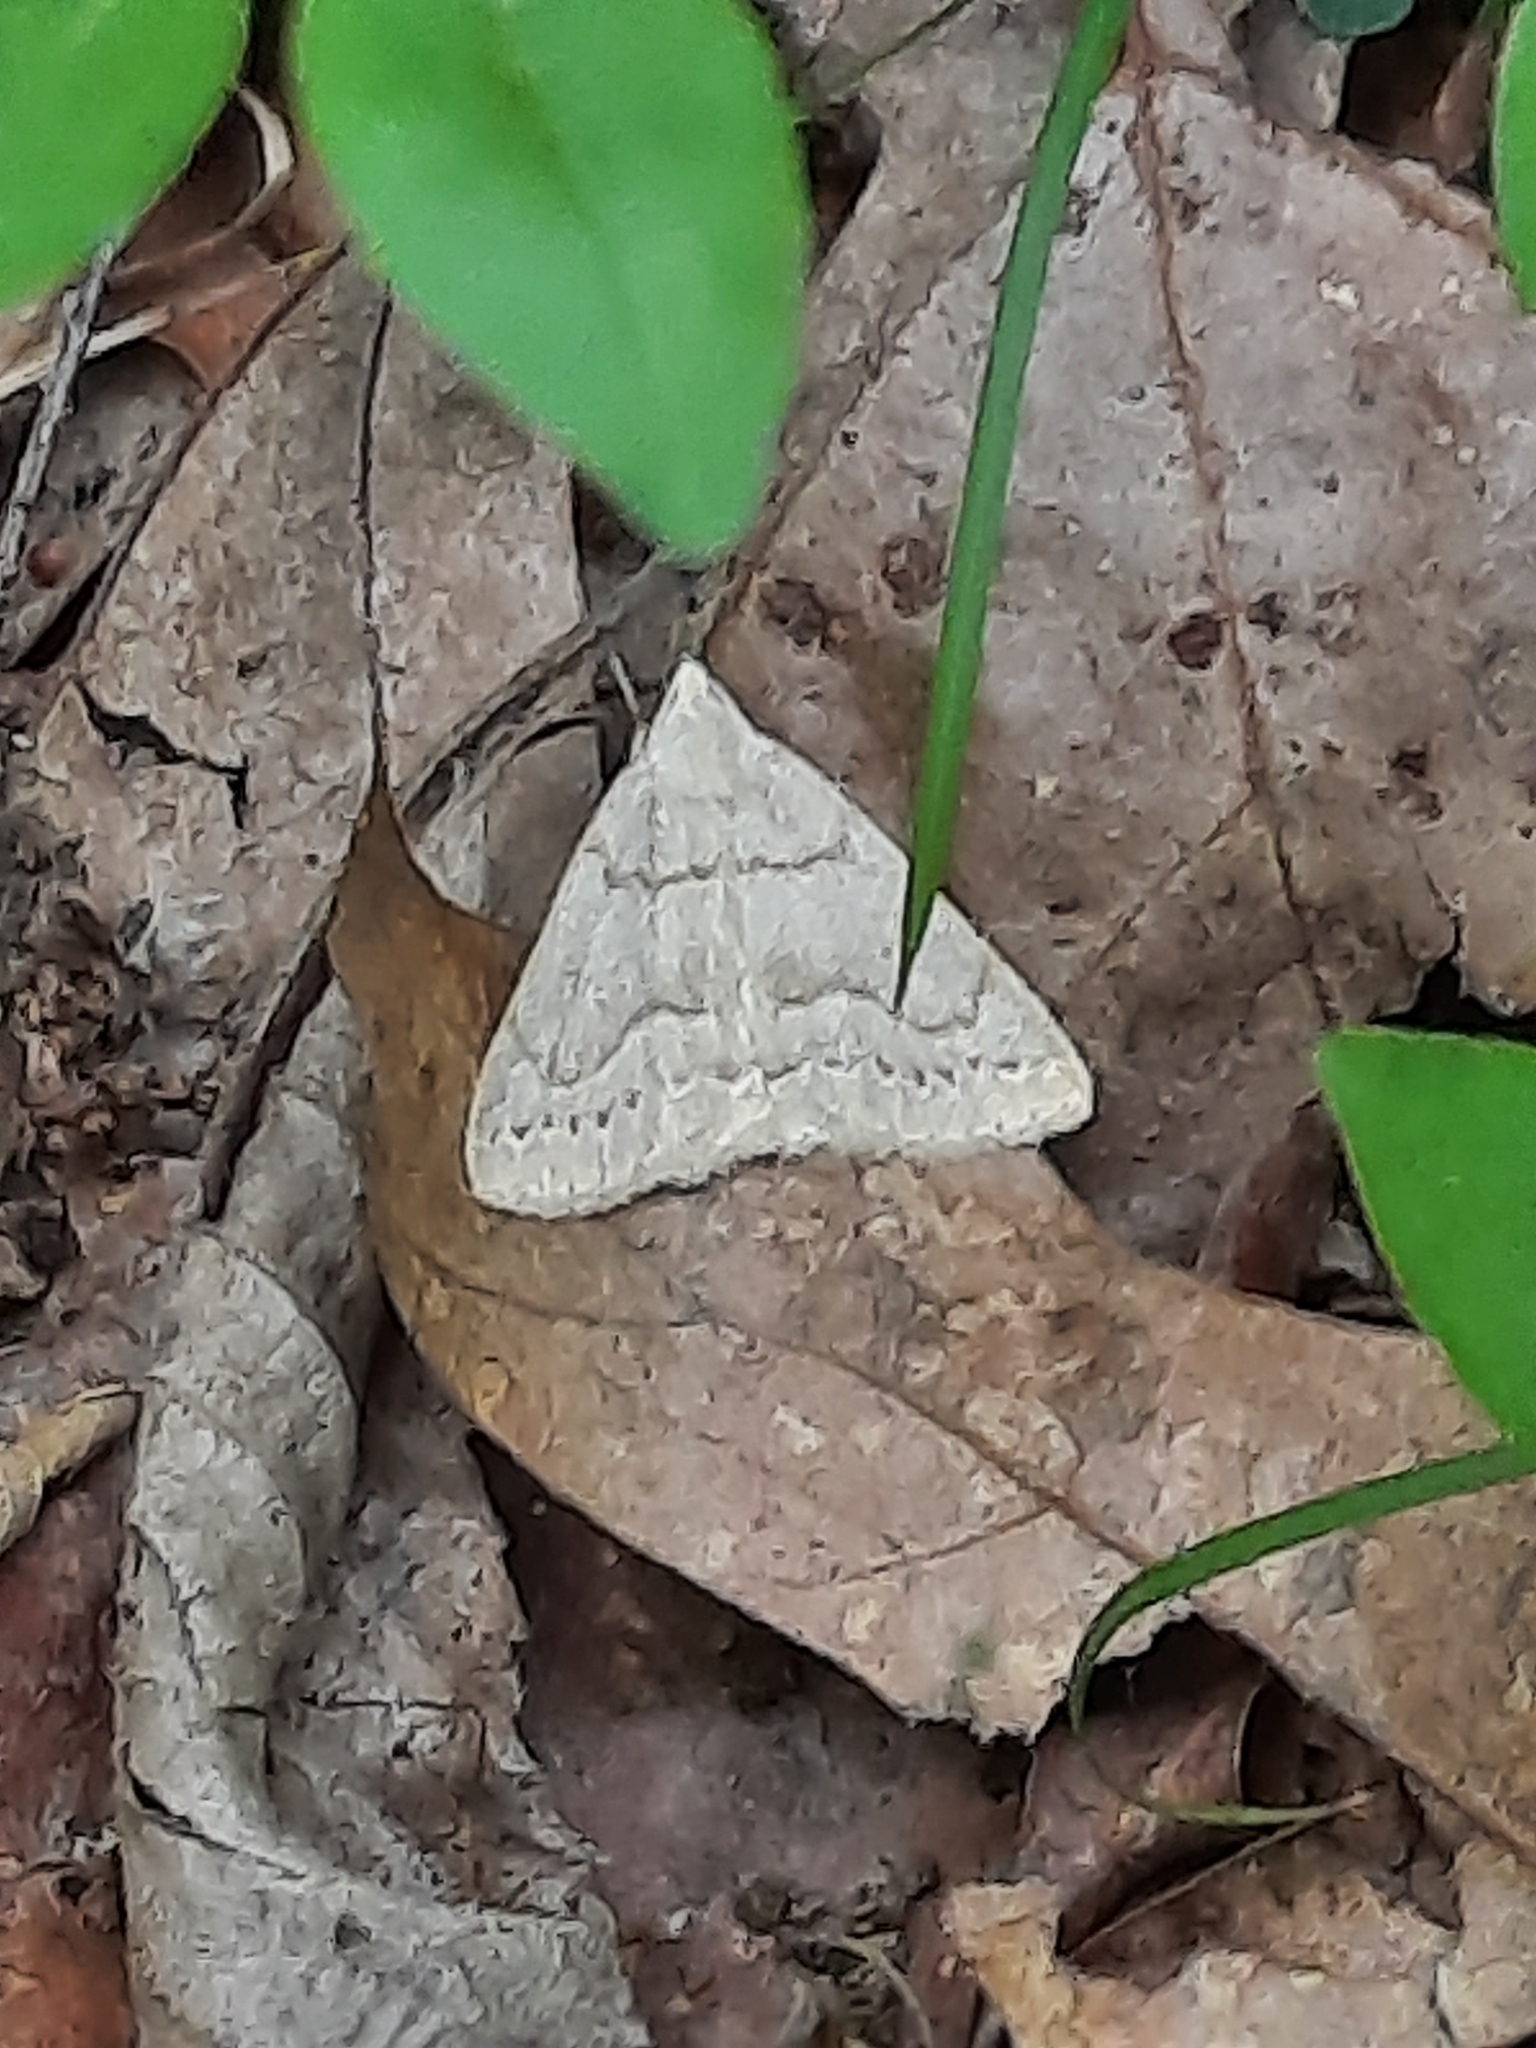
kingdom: Animalia
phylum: Arthropoda
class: Insecta
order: Lepidoptera
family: Erebidae
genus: Macrochilo
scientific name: Macrochilo morbidalis
